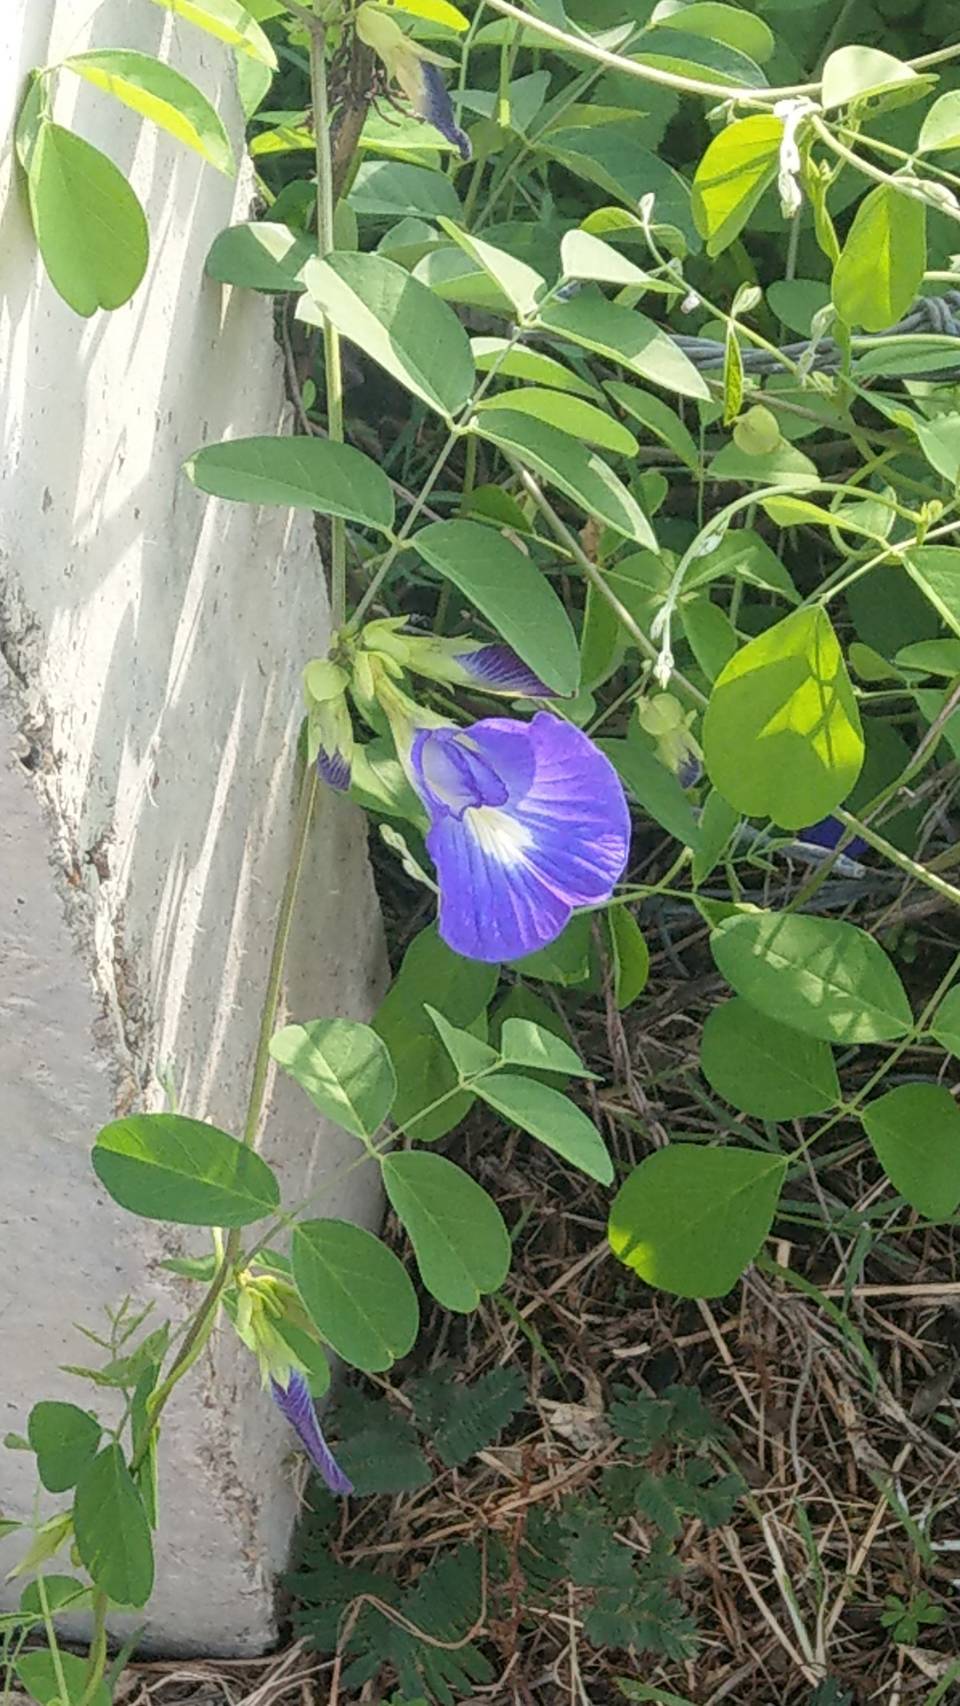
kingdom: Plantae
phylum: Tracheophyta
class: Magnoliopsida
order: Fabales
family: Fabaceae
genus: Clitoria
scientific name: Clitoria ternatea
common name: Asian pigeonwings
